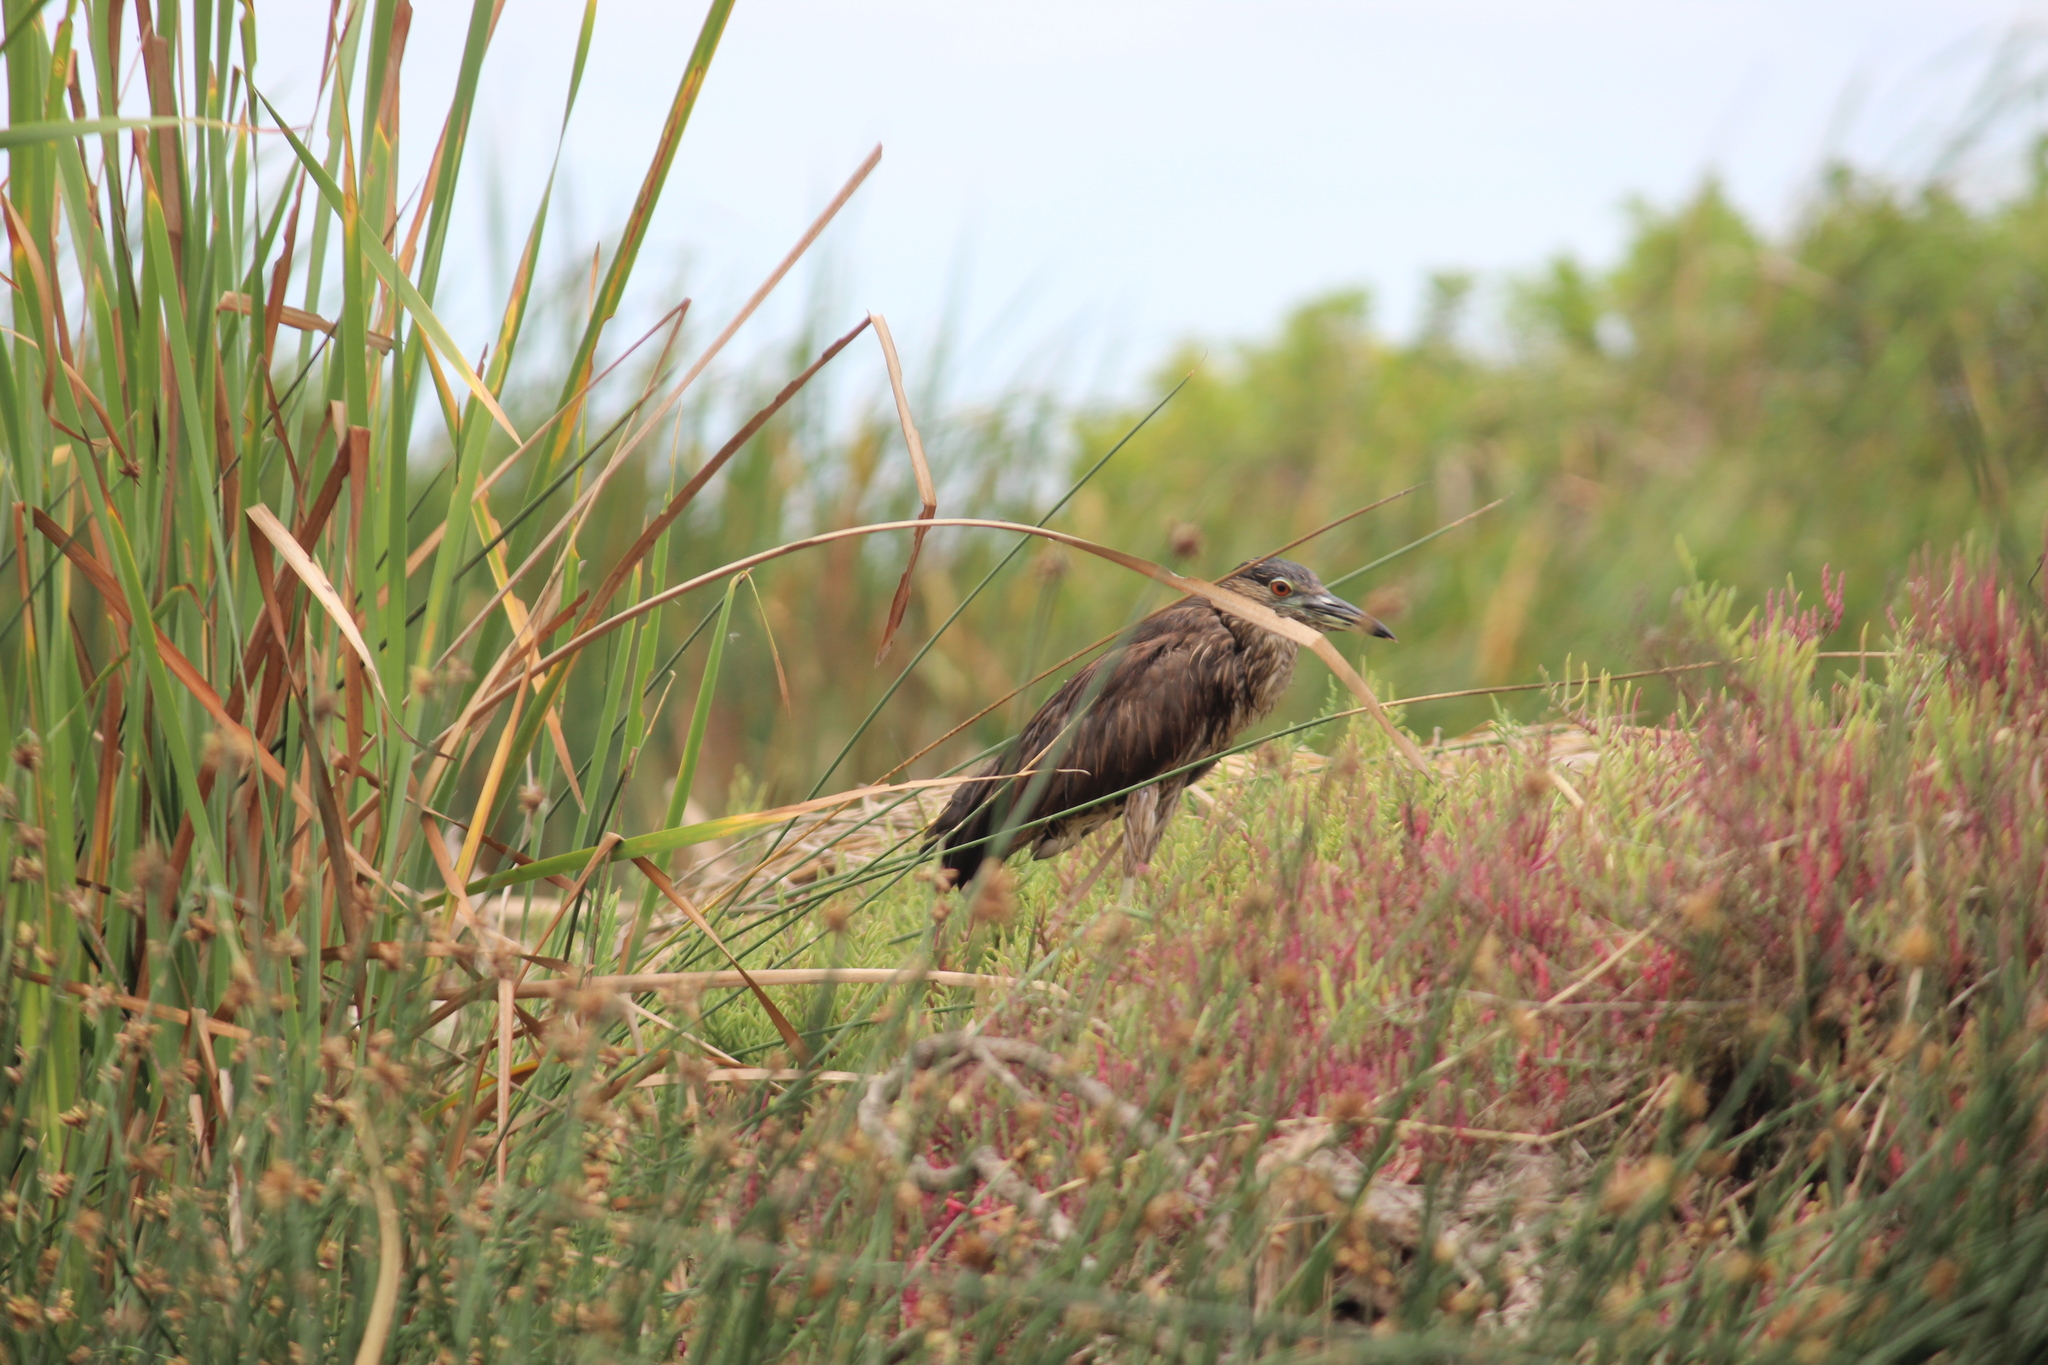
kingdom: Animalia
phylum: Chordata
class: Aves
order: Pelecaniformes
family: Ardeidae
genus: Nycticorax
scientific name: Nycticorax nycticorax
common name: Black-crowned night heron
